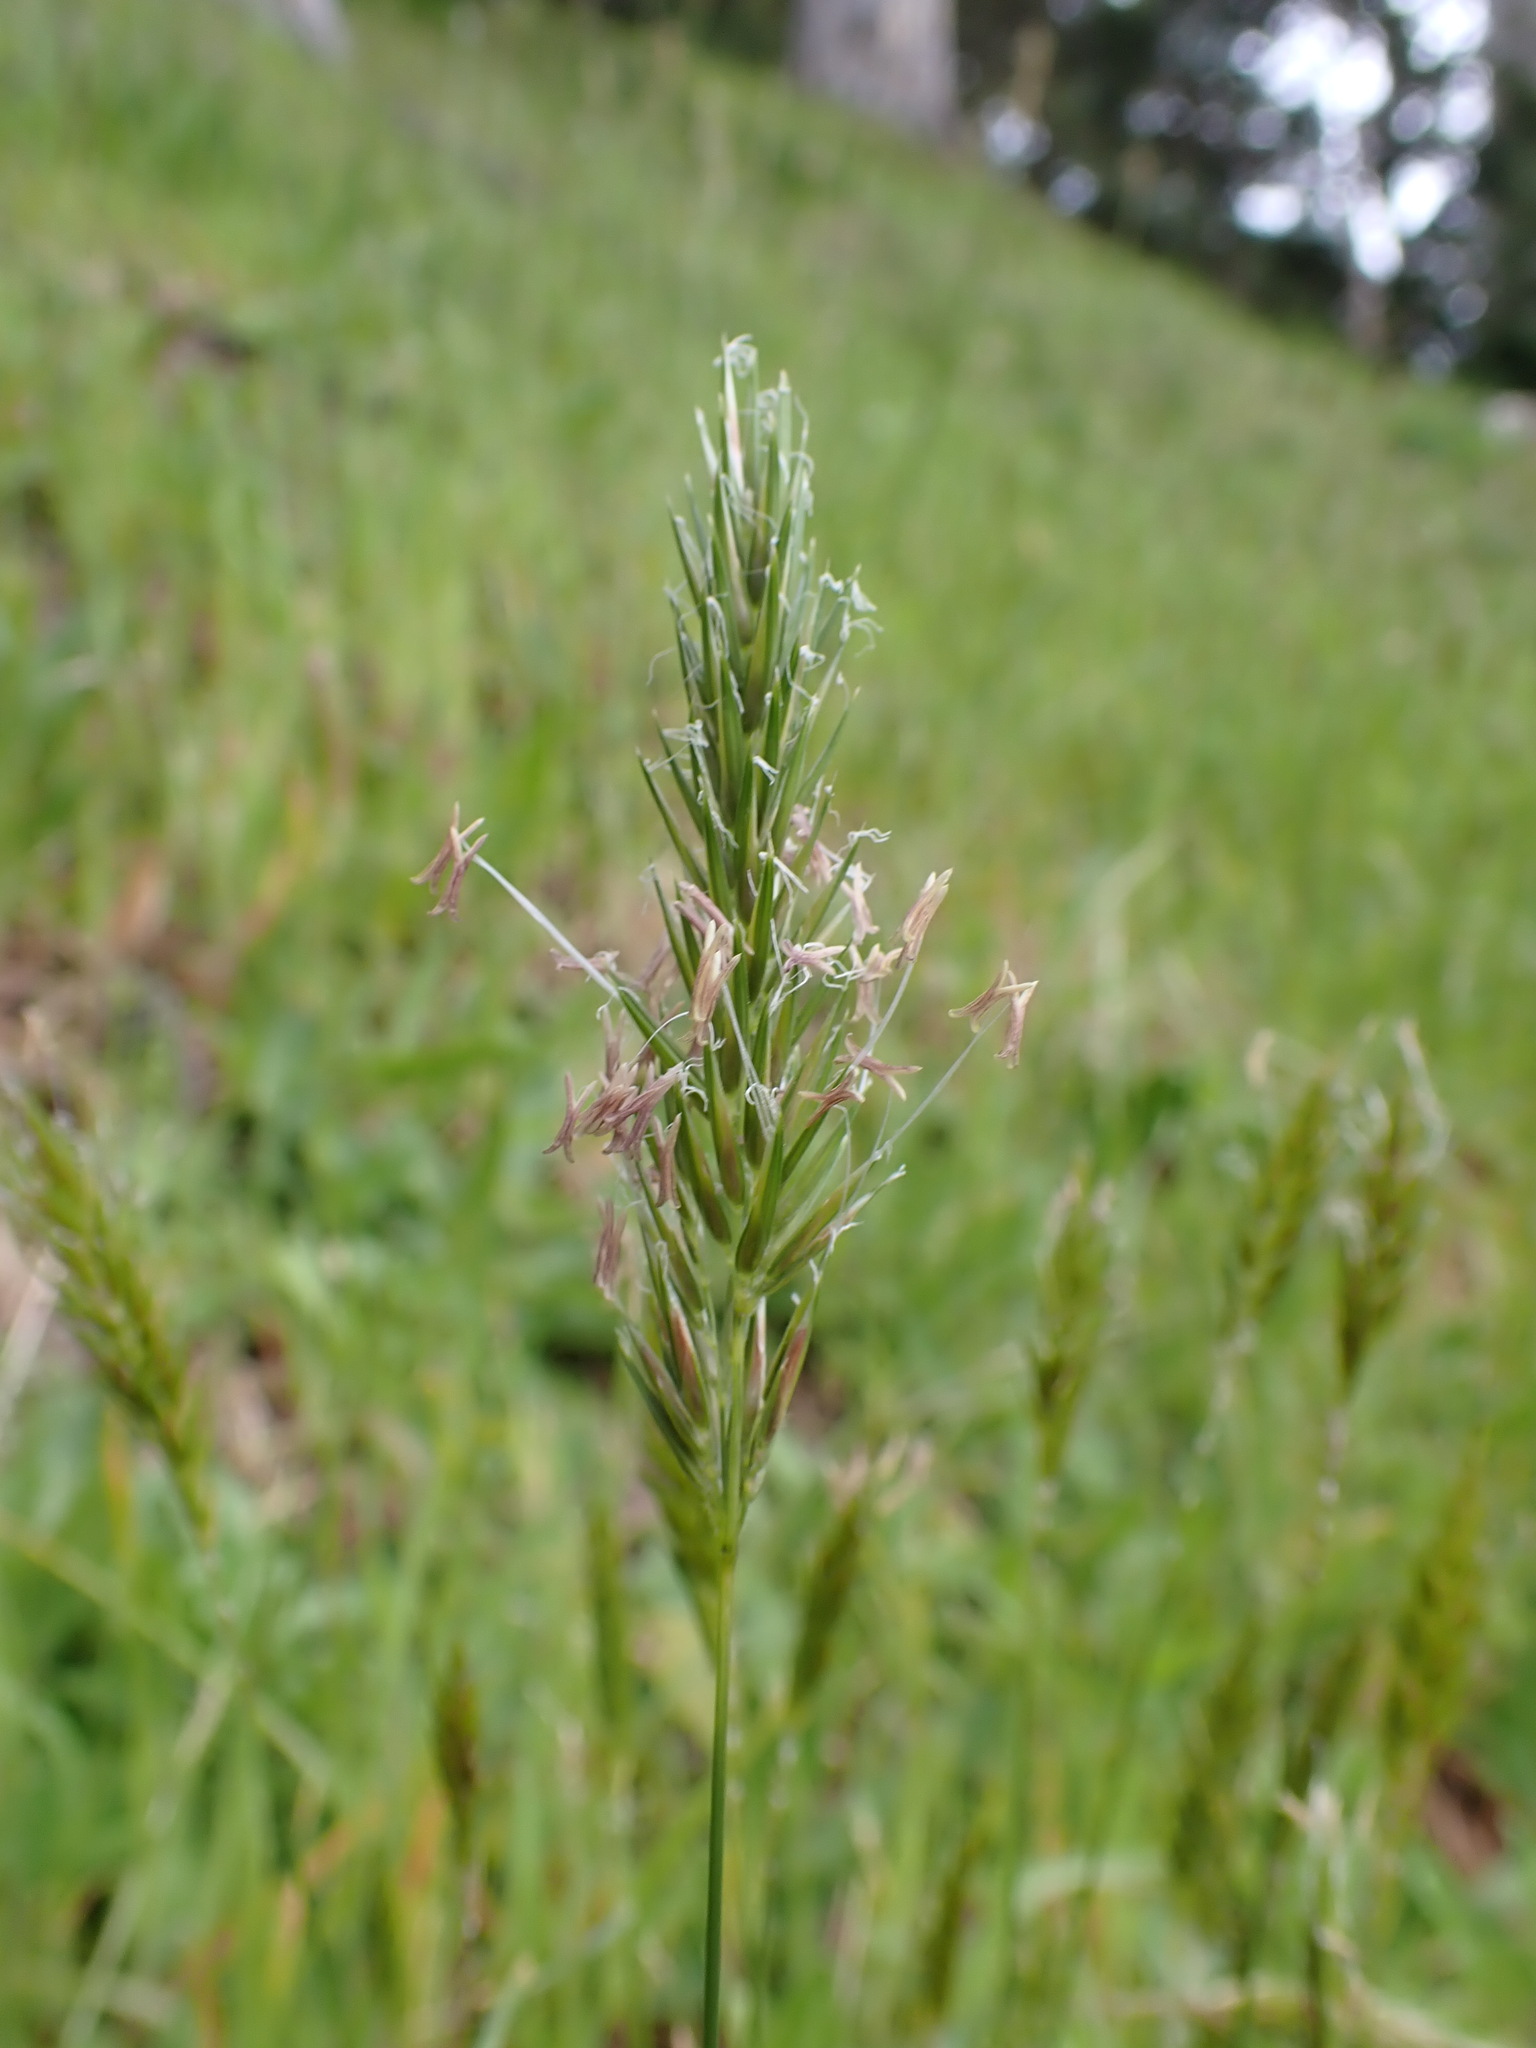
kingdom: Plantae
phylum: Tracheophyta
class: Liliopsida
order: Poales
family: Poaceae
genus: Anthoxanthum
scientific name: Anthoxanthum odoratum
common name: Sweet vernalgrass
